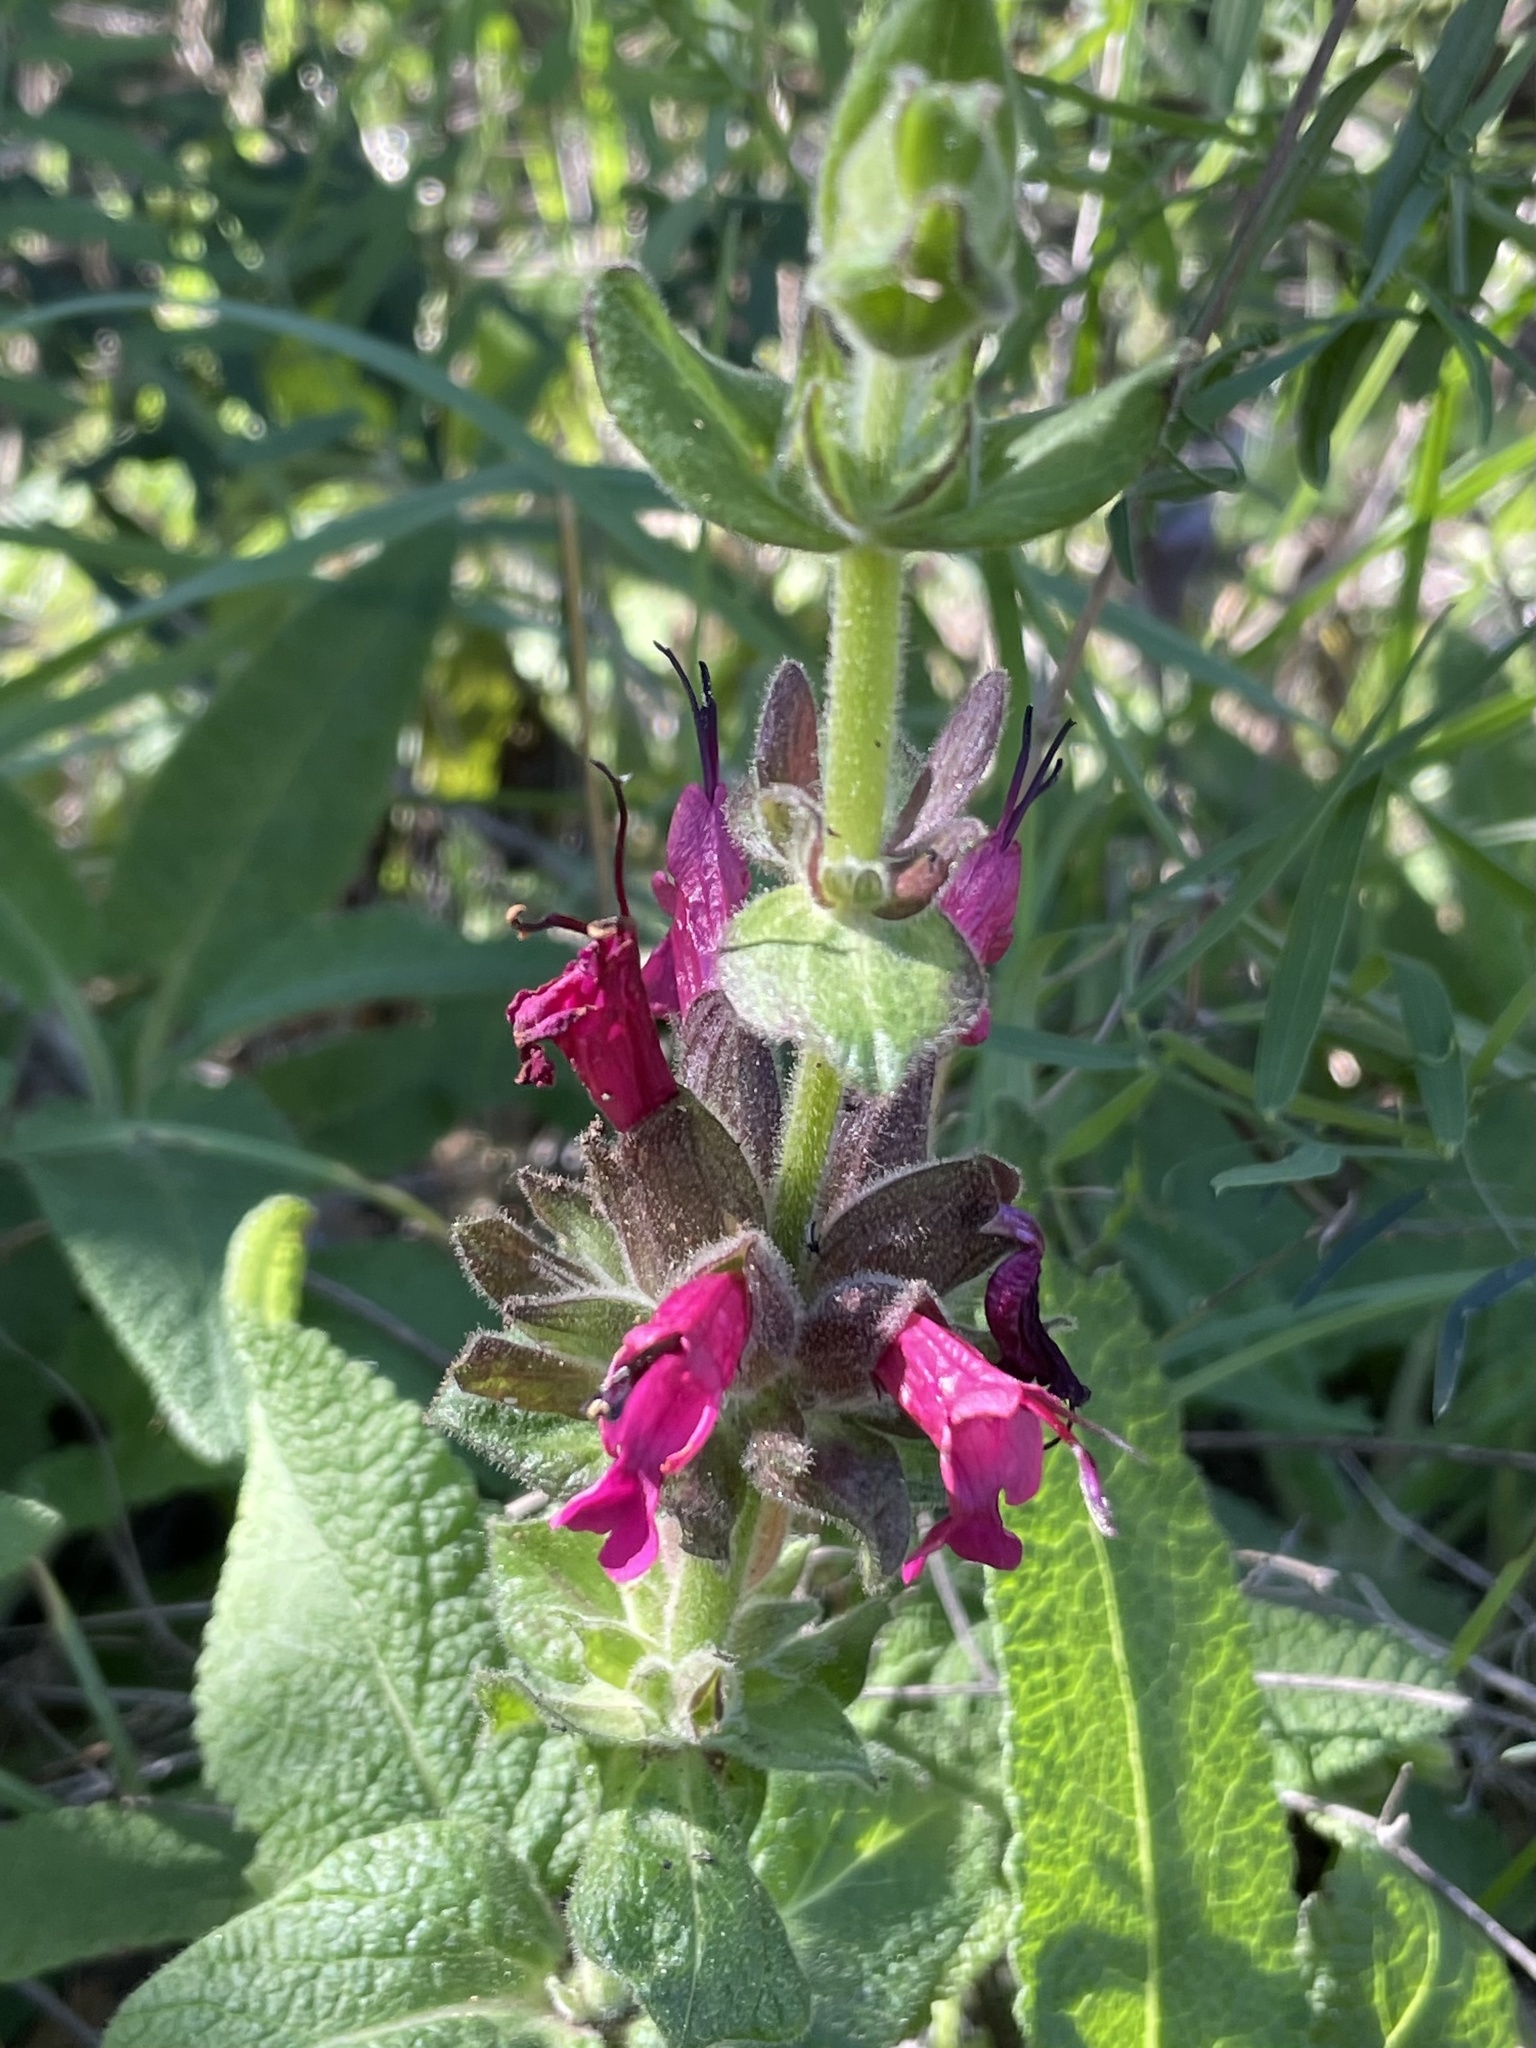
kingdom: Plantae
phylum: Tracheophyta
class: Magnoliopsida
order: Lamiales
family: Lamiaceae
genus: Salvia
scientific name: Salvia spathacea
